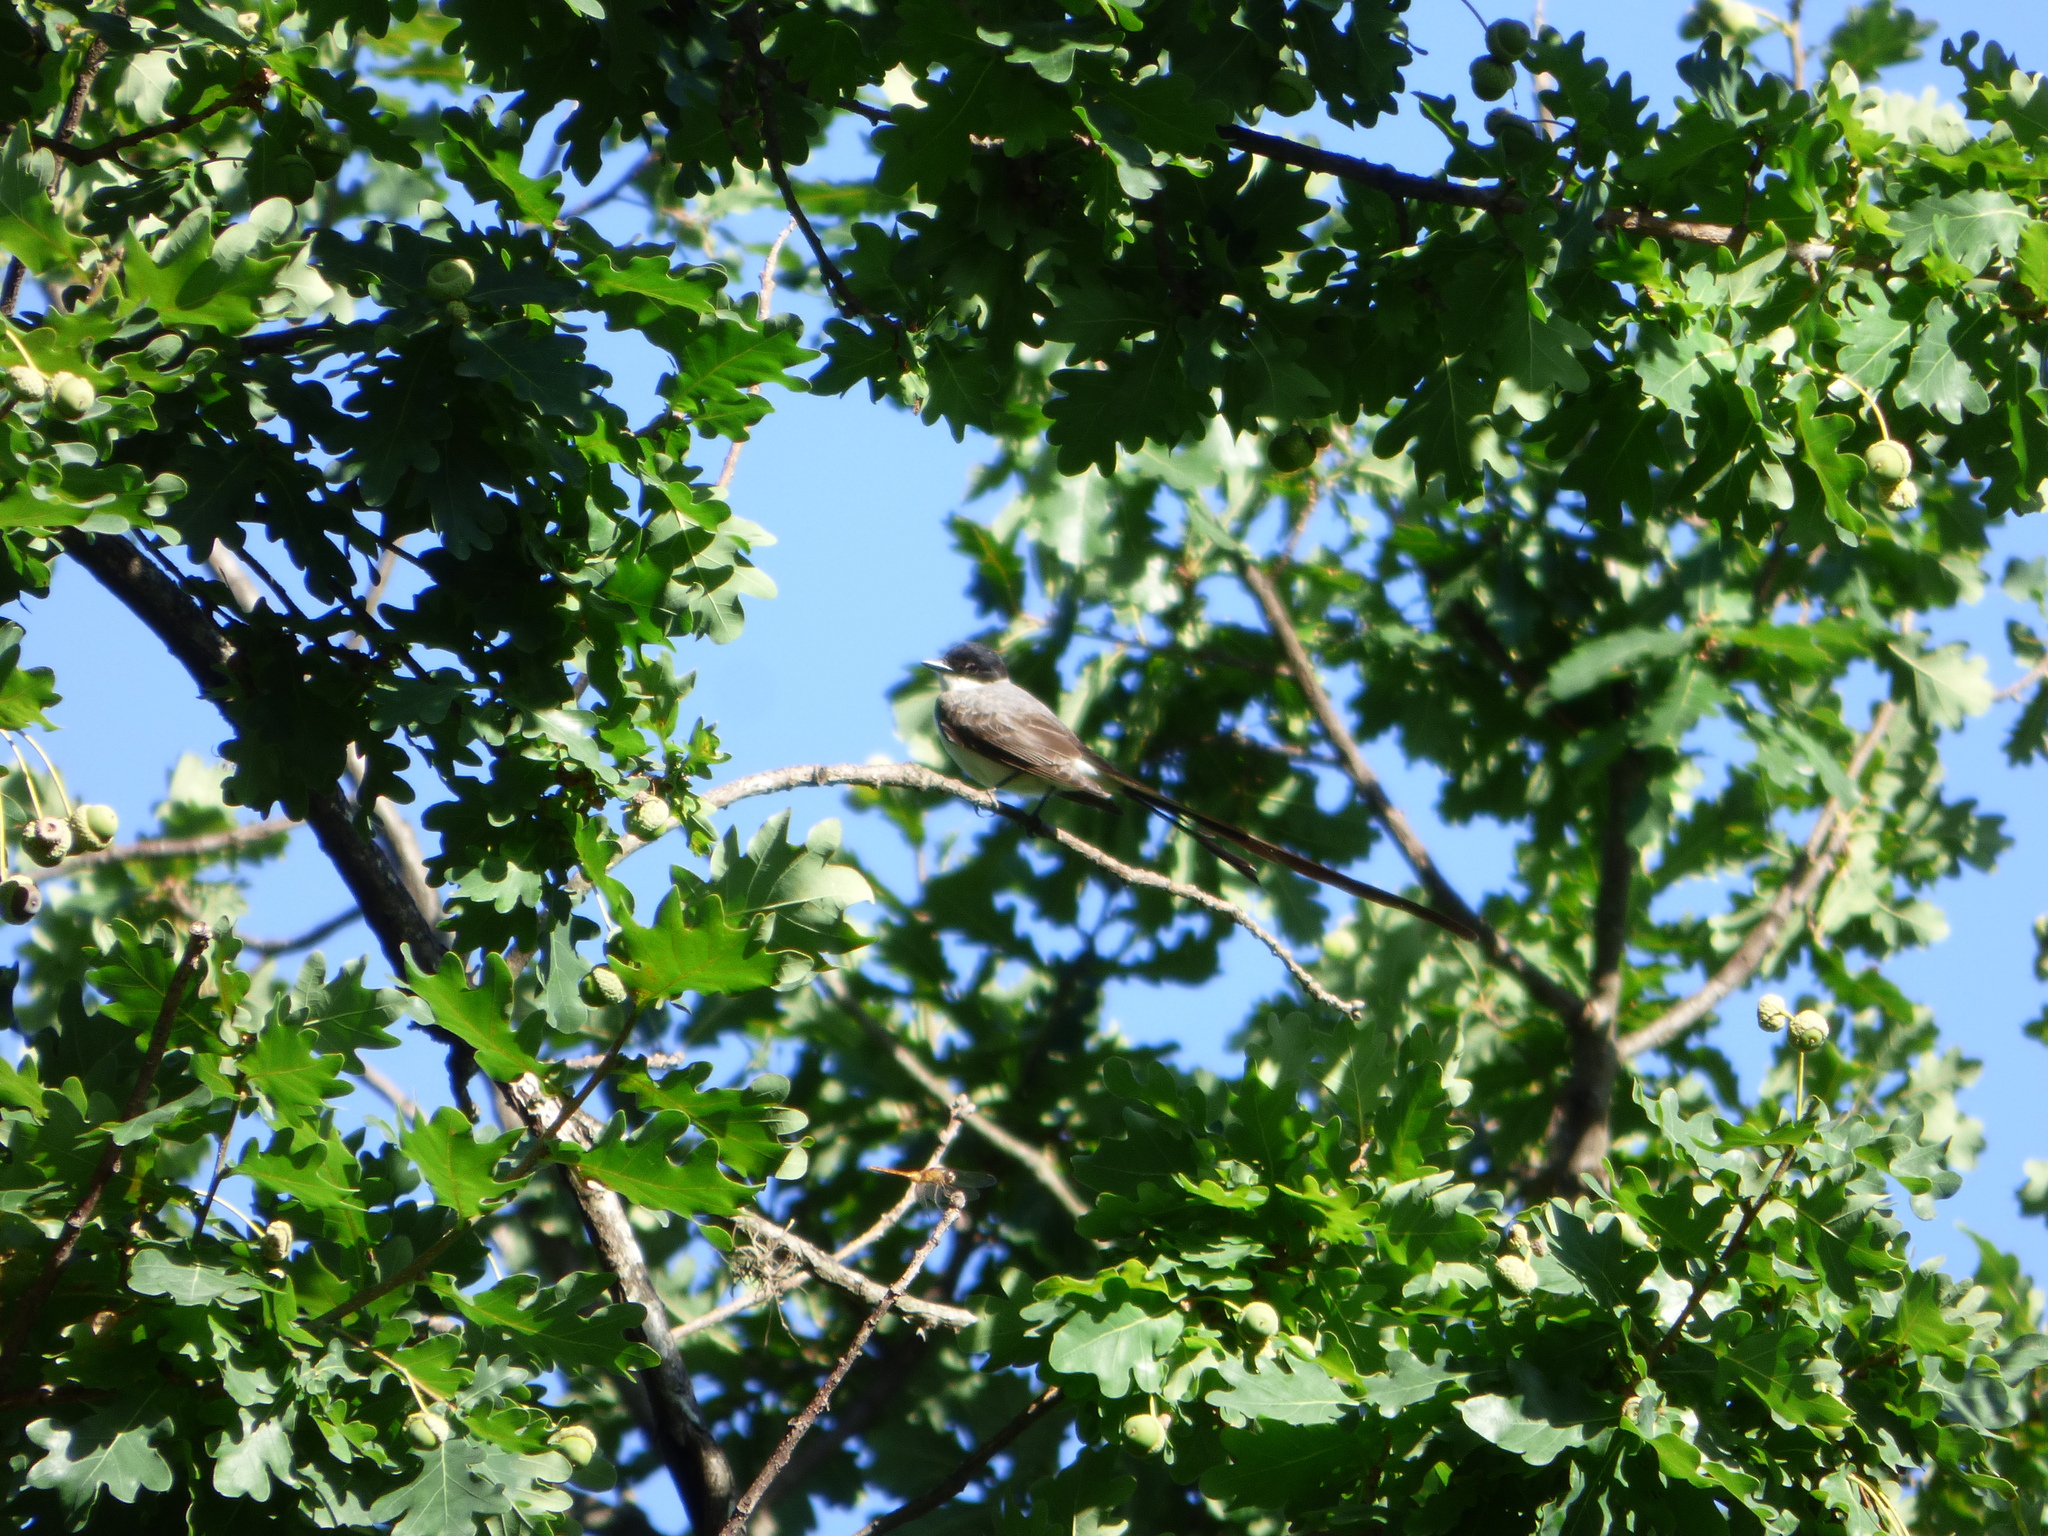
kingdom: Animalia
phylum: Chordata
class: Aves
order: Passeriformes
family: Tyrannidae
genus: Tyrannus
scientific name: Tyrannus savana
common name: Fork-tailed flycatcher
